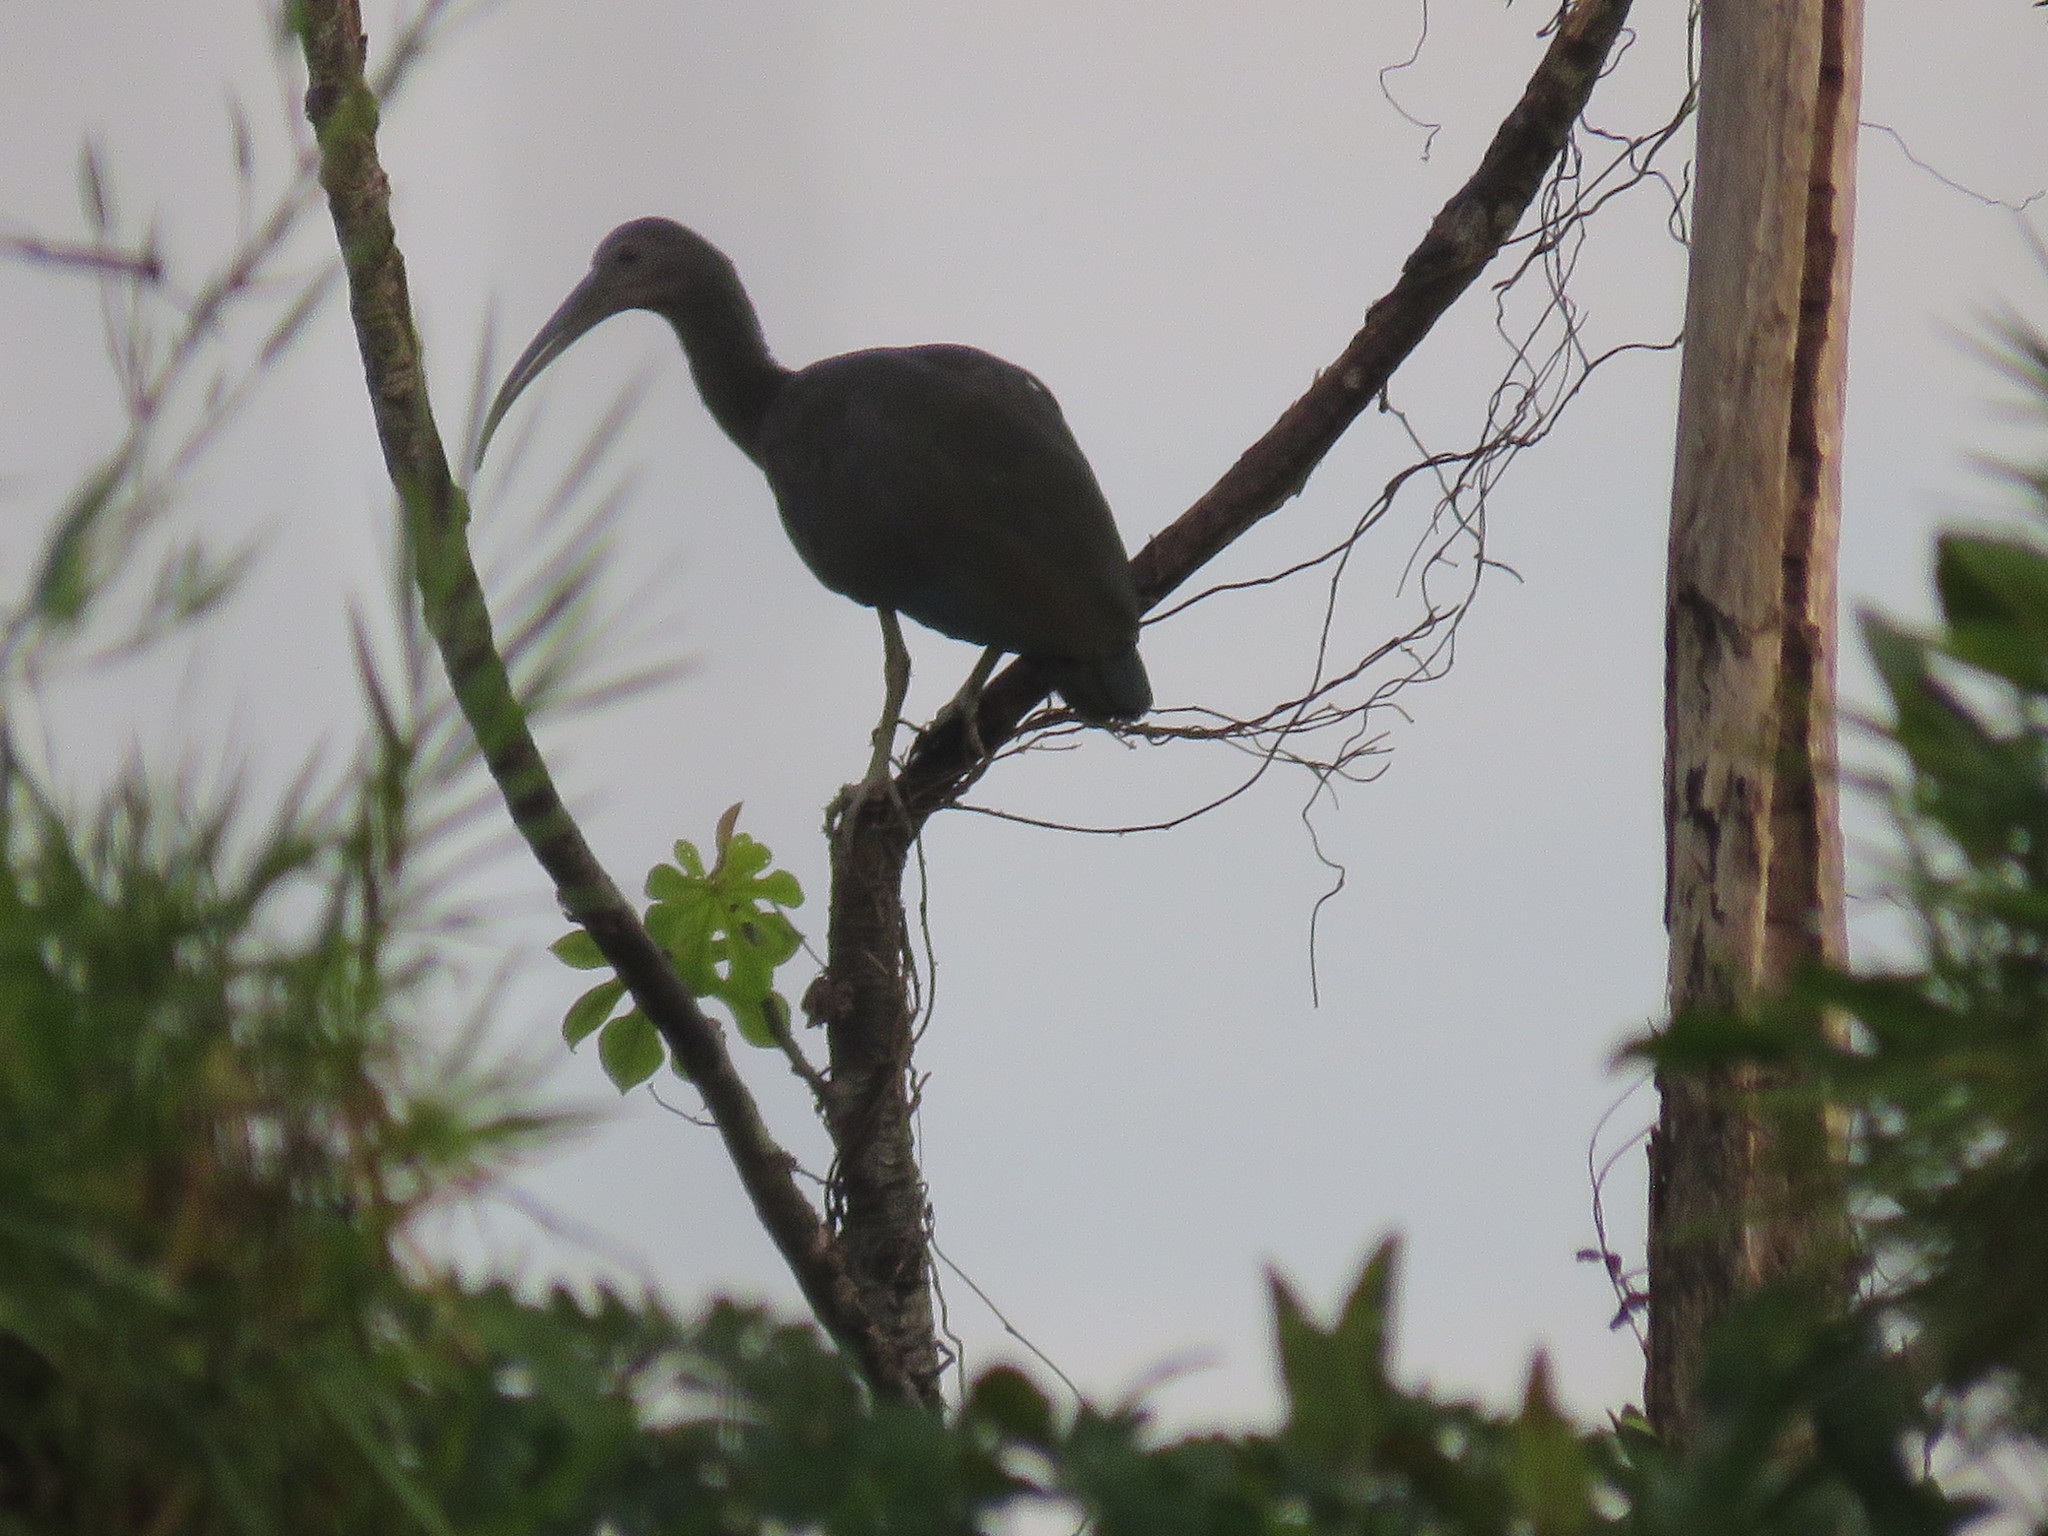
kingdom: Animalia
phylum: Chordata
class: Aves
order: Pelecaniformes
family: Threskiornithidae
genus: Mesembrinibis
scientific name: Mesembrinibis cayennensis
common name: Green ibis
